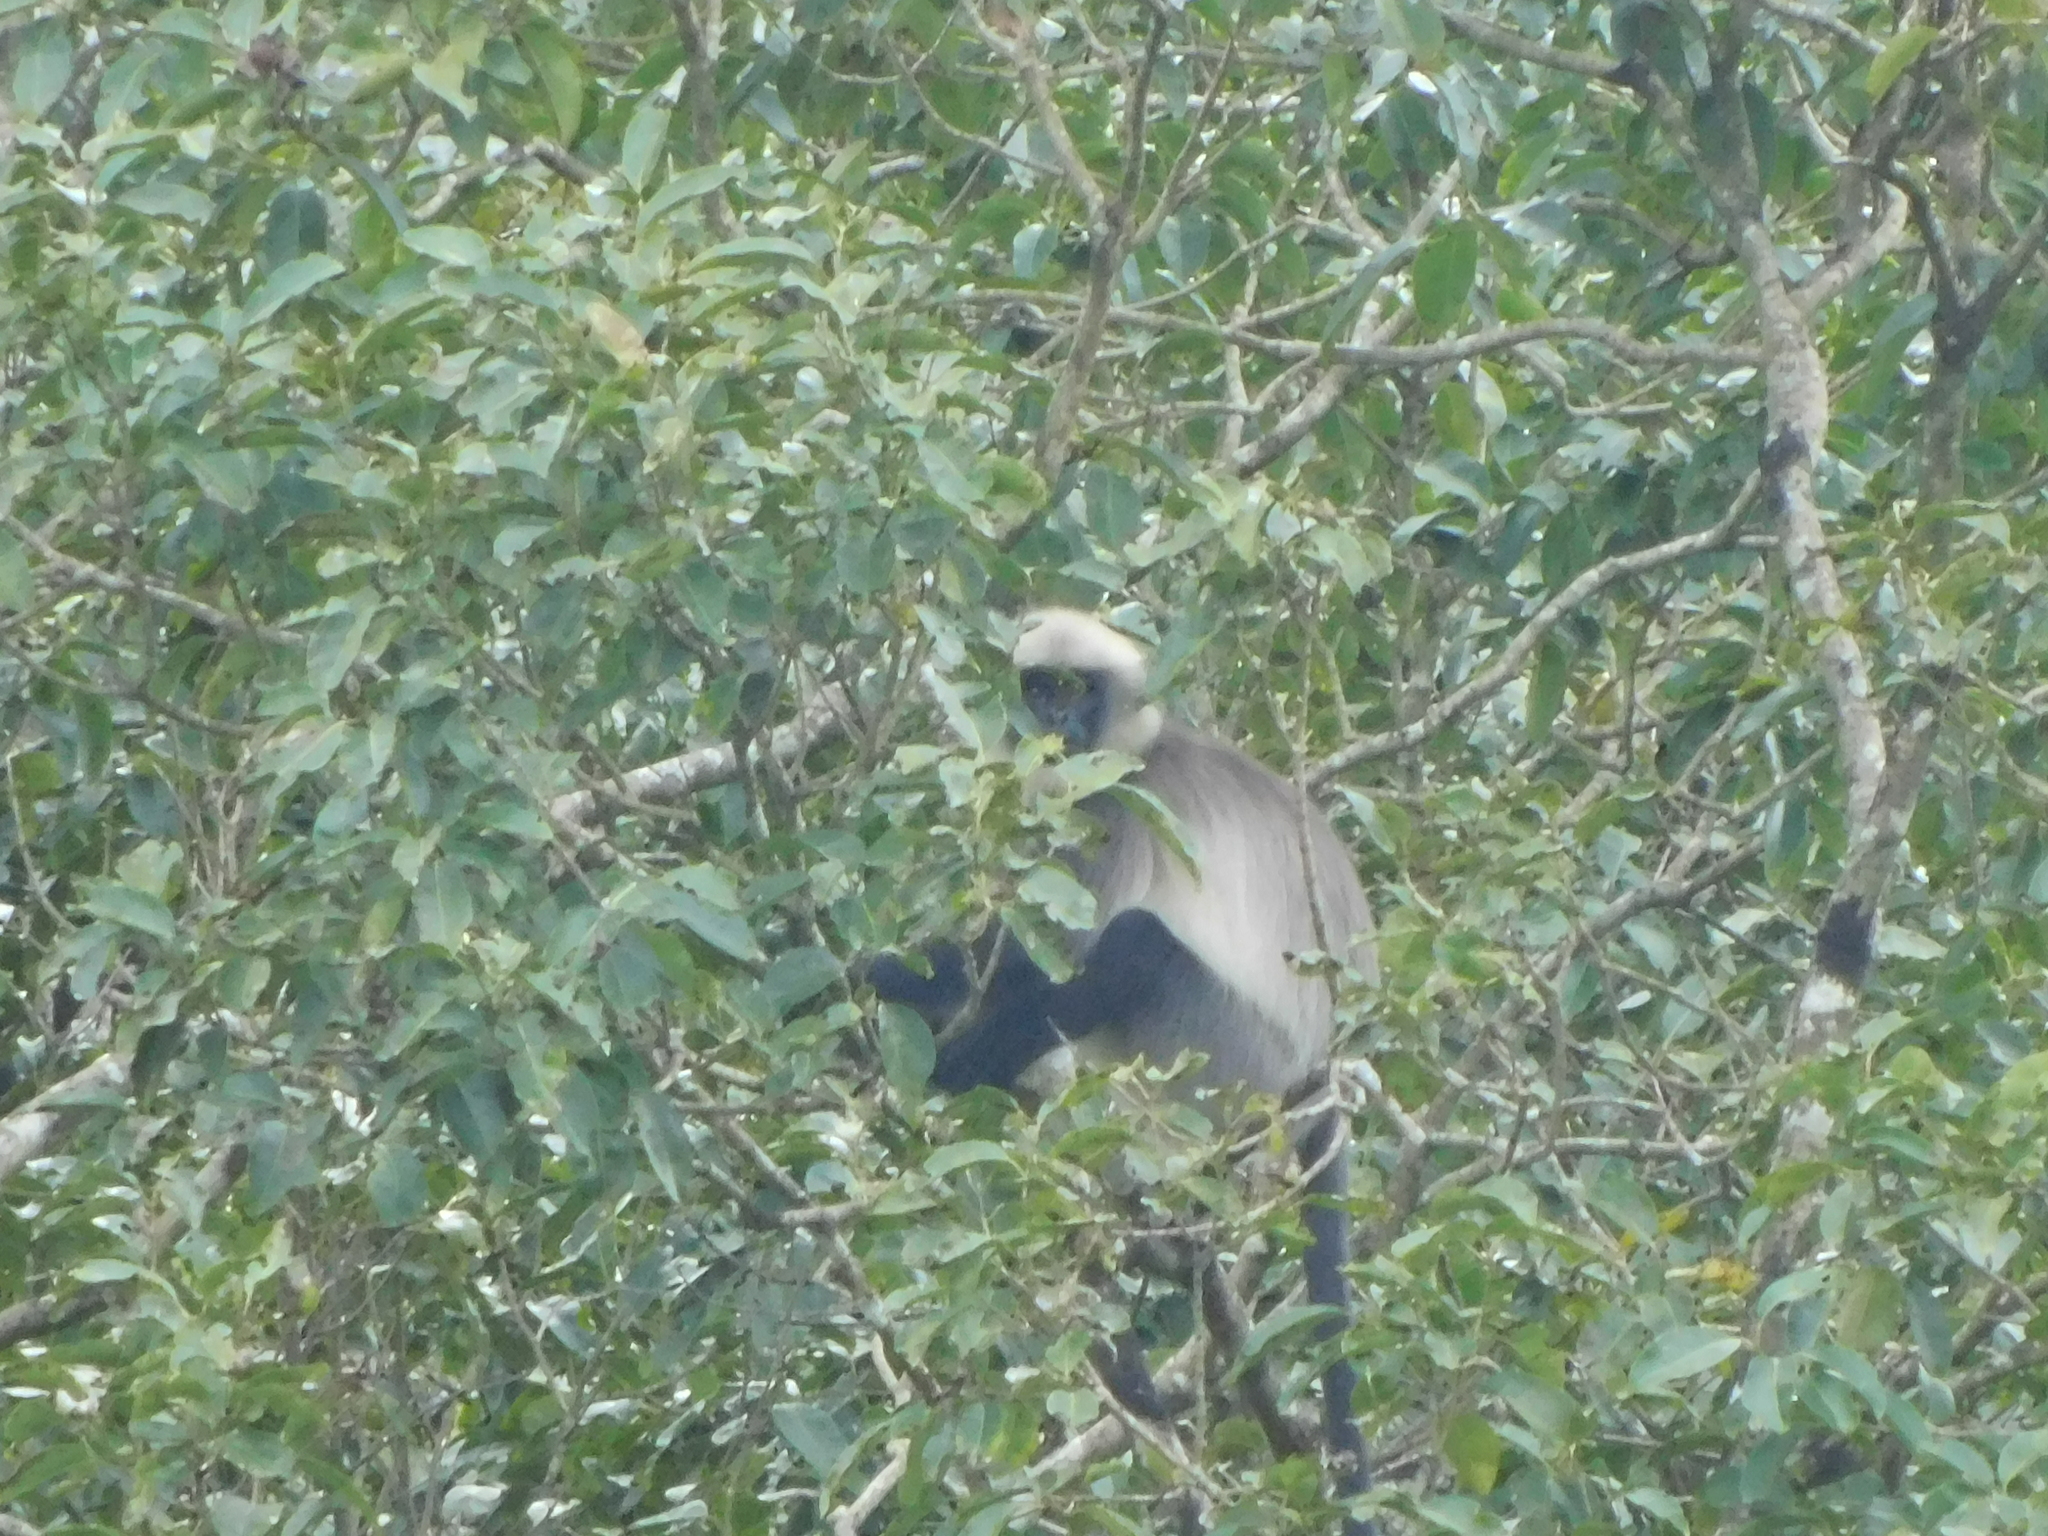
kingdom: Animalia
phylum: Chordata
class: Mammalia
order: Primates
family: Cercopithecidae
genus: Semnopithecus
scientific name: Semnopithecus hypoleucos
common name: Black-footed gray langur
